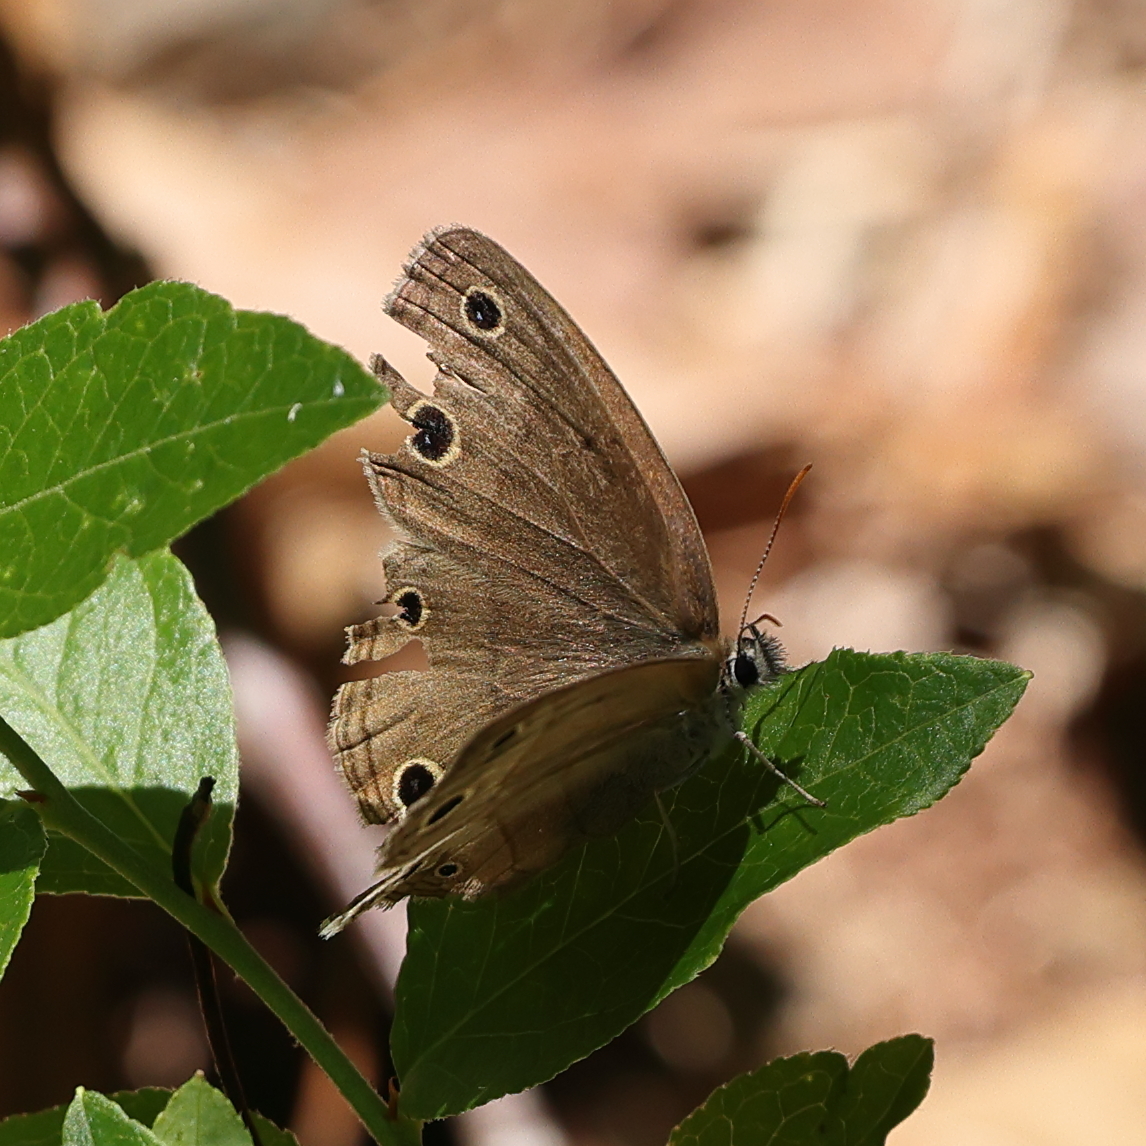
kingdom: Animalia
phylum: Arthropoda
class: Insecta
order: Lepidoptera
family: Nymphalidae
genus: Euptychia
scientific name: Euptychia cymela
